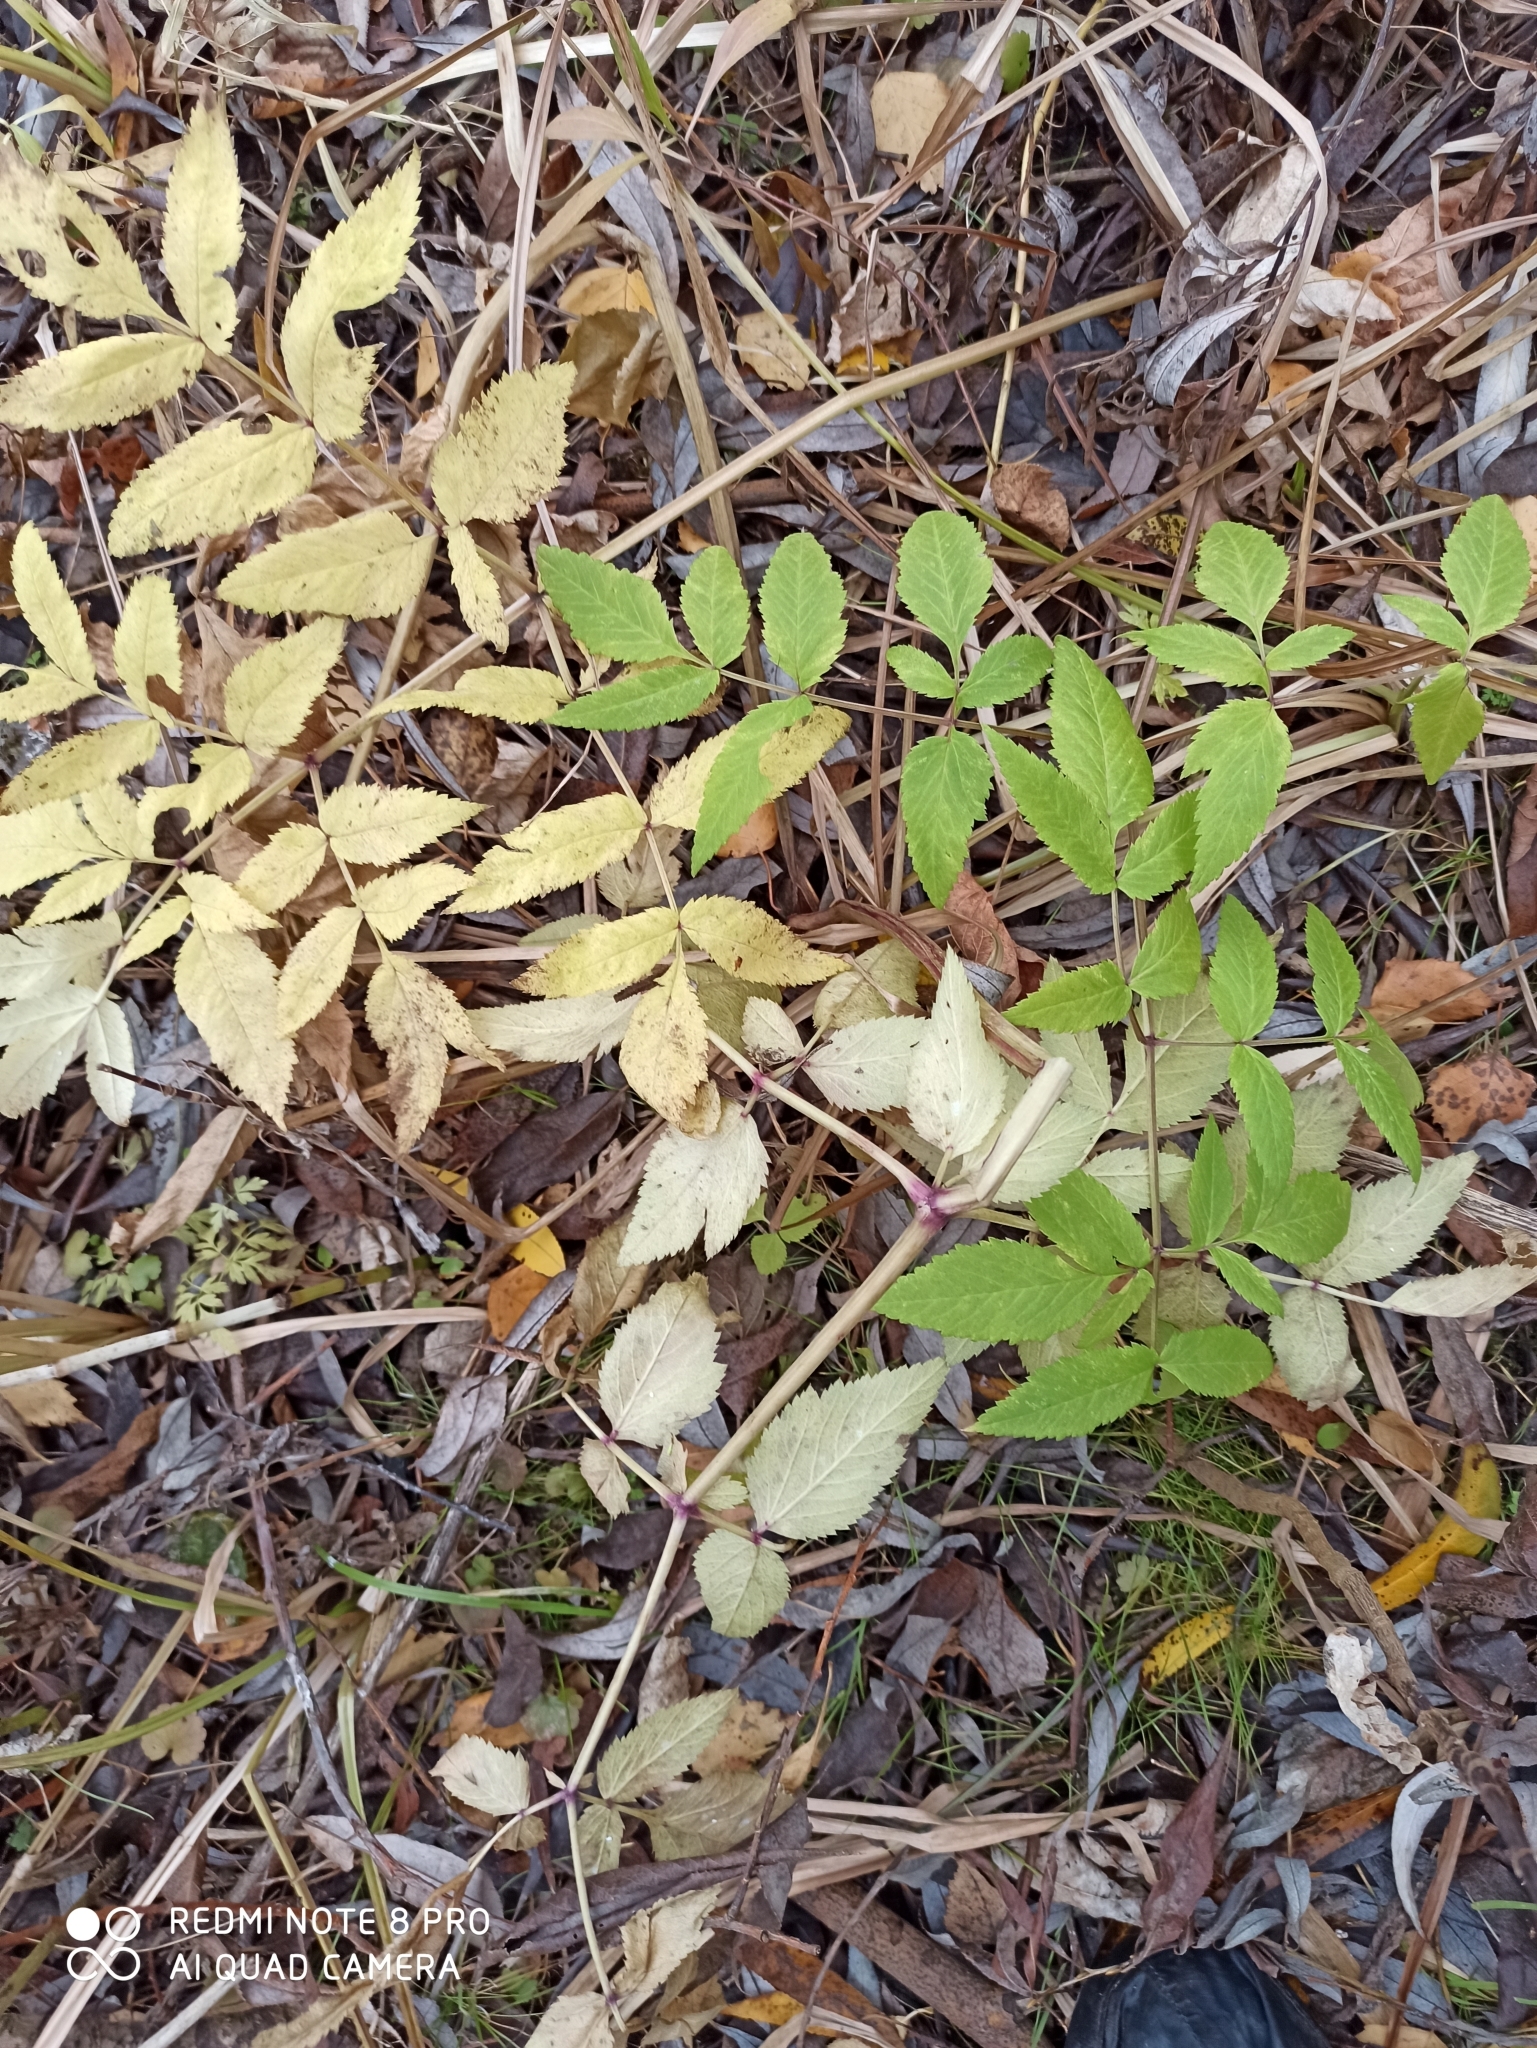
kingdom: Plantae
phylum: Tracheophyta
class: Magnoliopsida
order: Apiales
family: Apiaceae
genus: Angelica
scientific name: Angelica sylvestris
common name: Wild angelica
